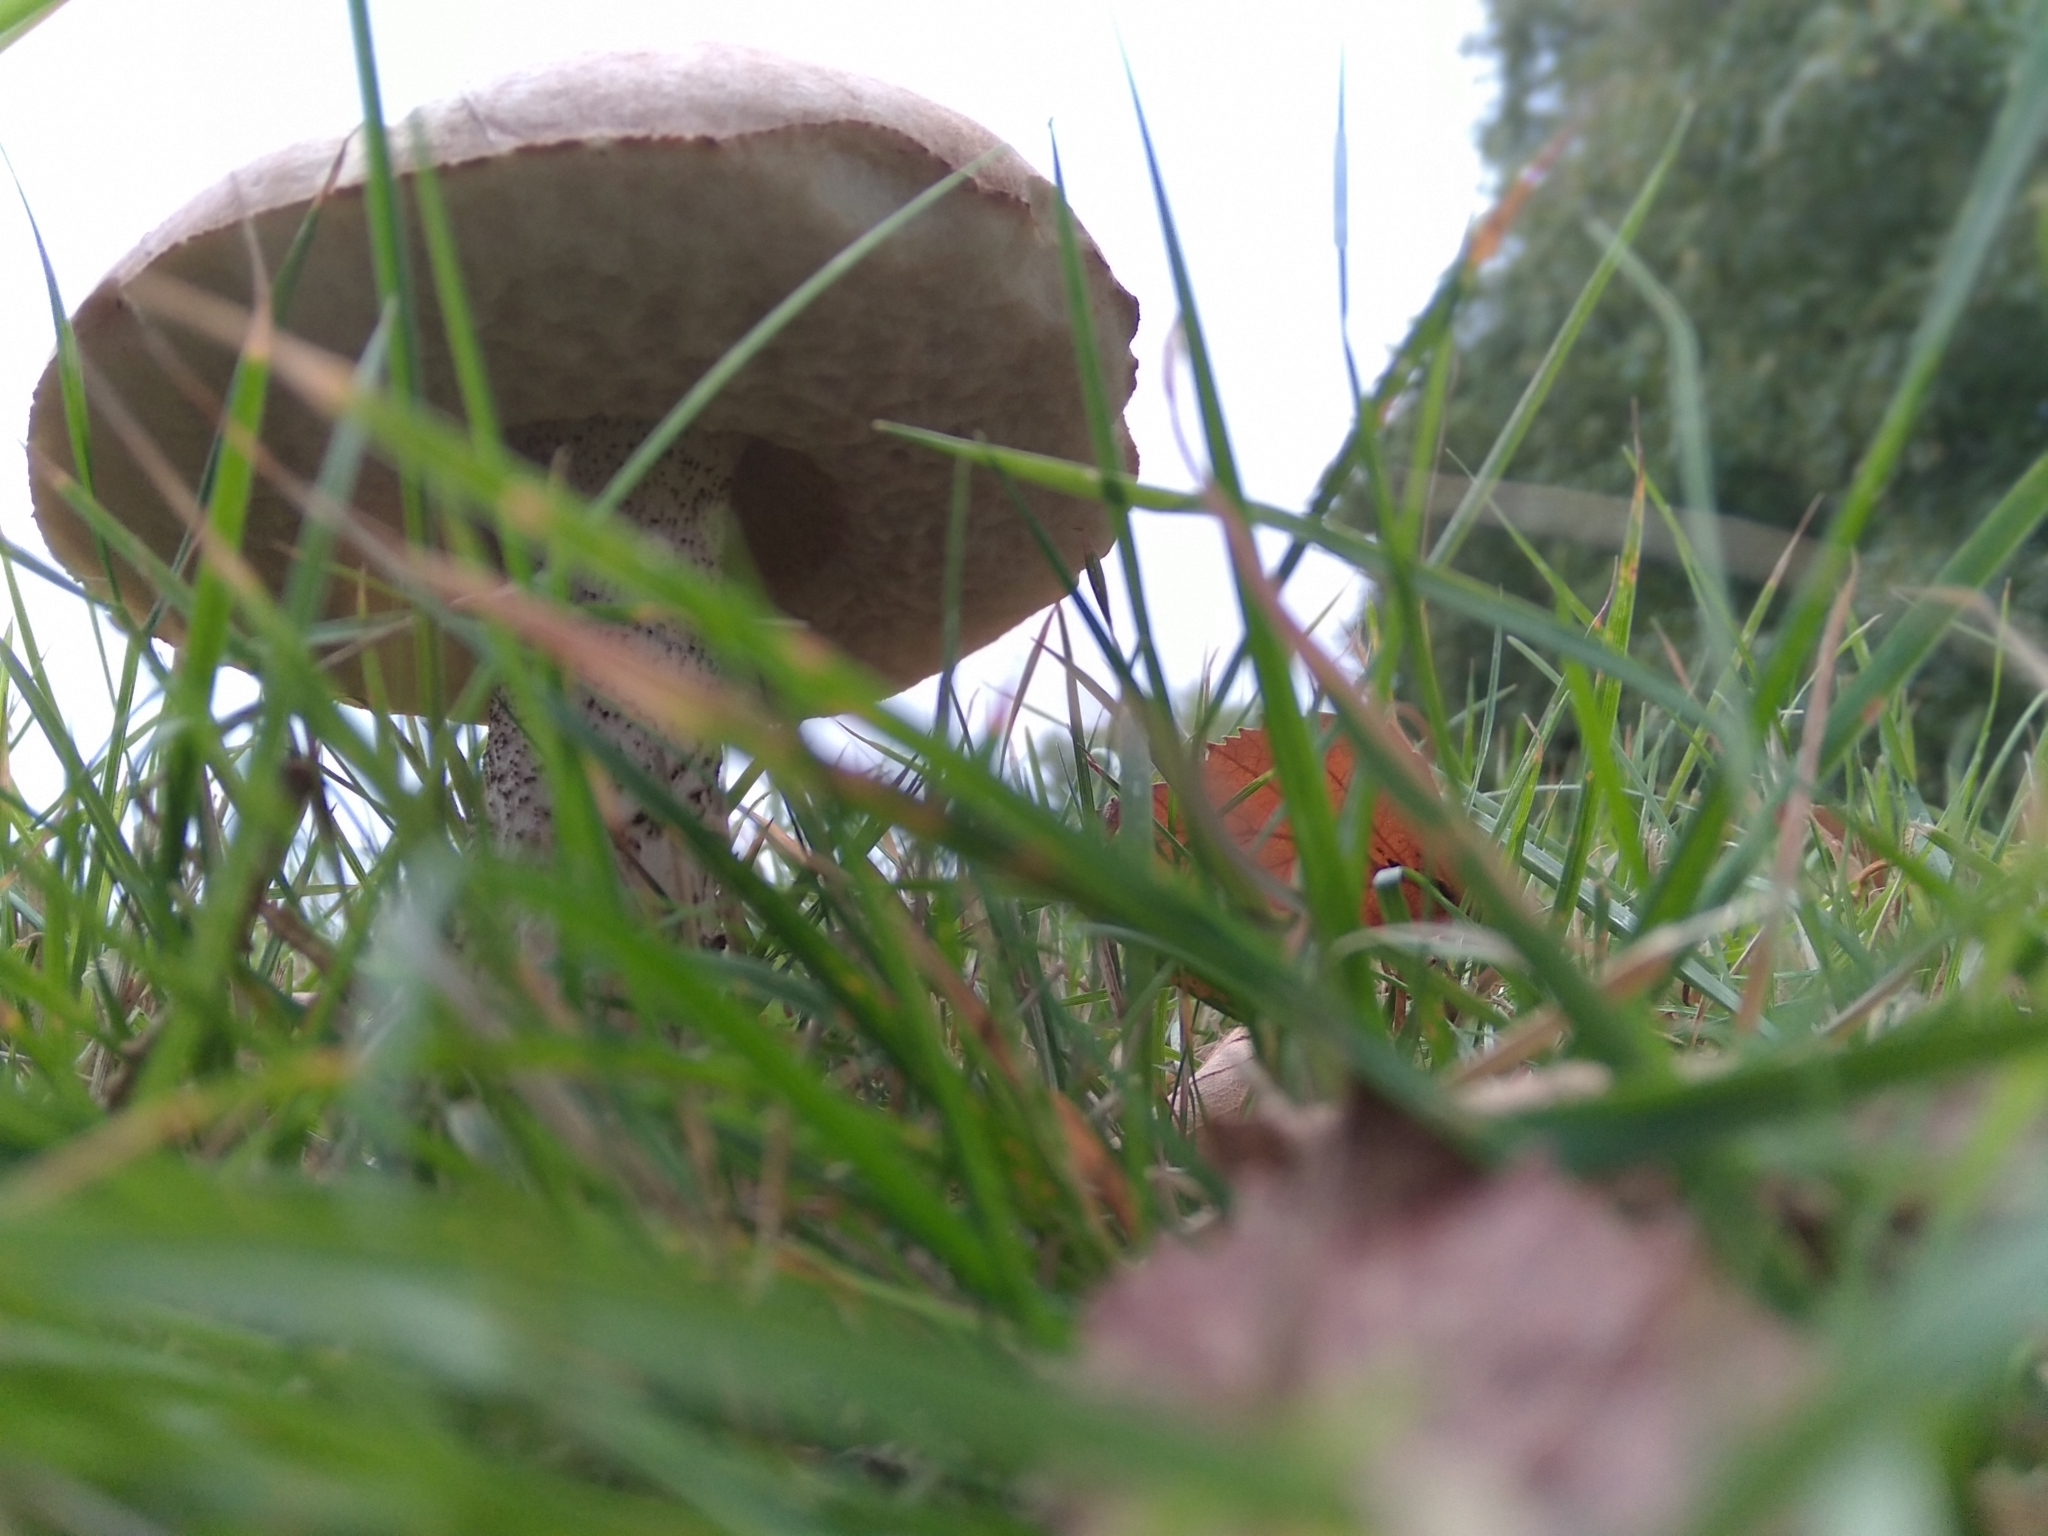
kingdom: Fungi
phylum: Basidiomycota
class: Agaricomycetes
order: Boletales
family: Boletaceae
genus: Leccinum
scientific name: Leccinum scabrum
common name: Blushing bolete
